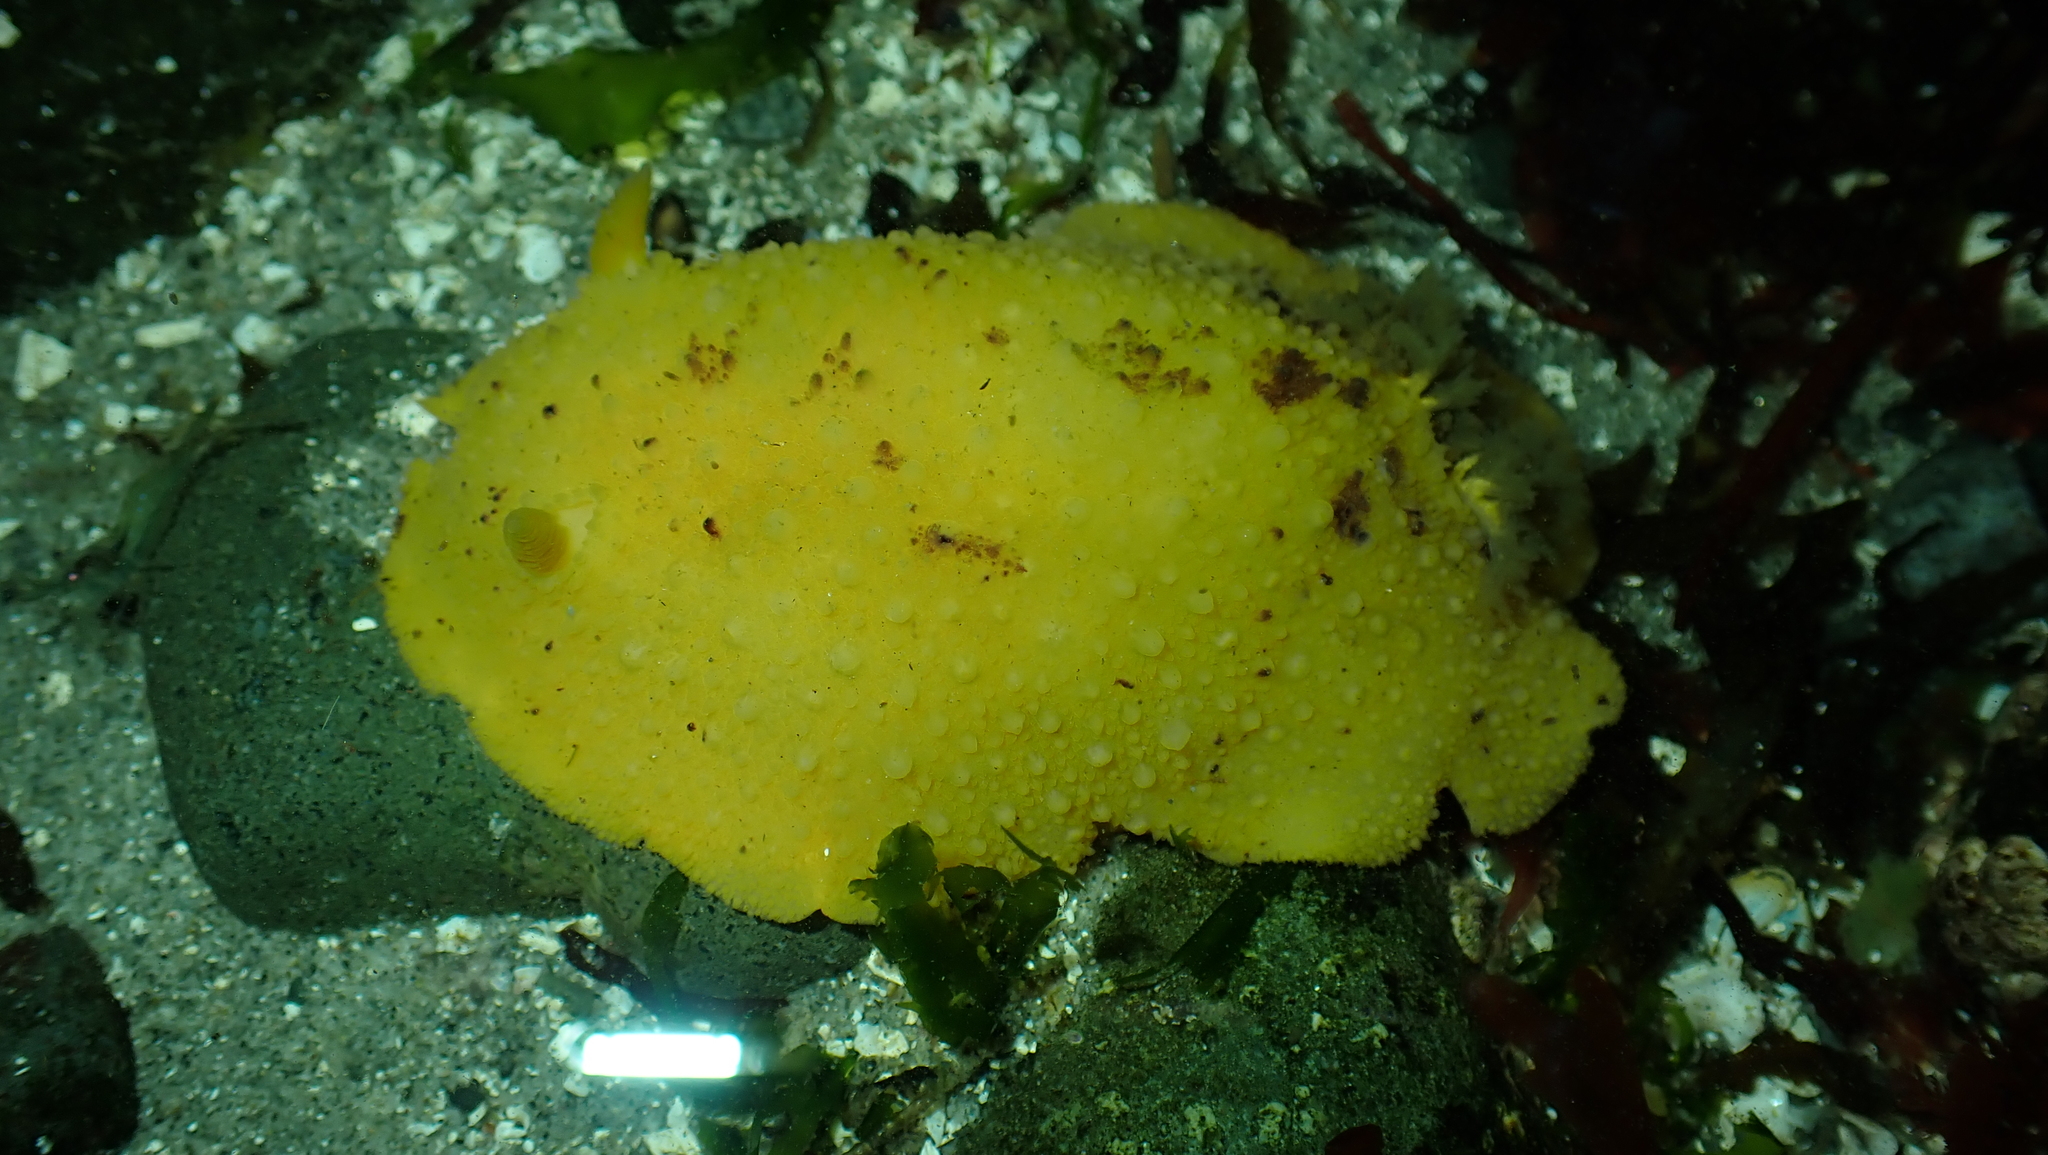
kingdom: Animalia
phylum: Mollusca
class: Gastropoda
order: Nudibranchia
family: Dorididae
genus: Doris
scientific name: Doris montereyensis
